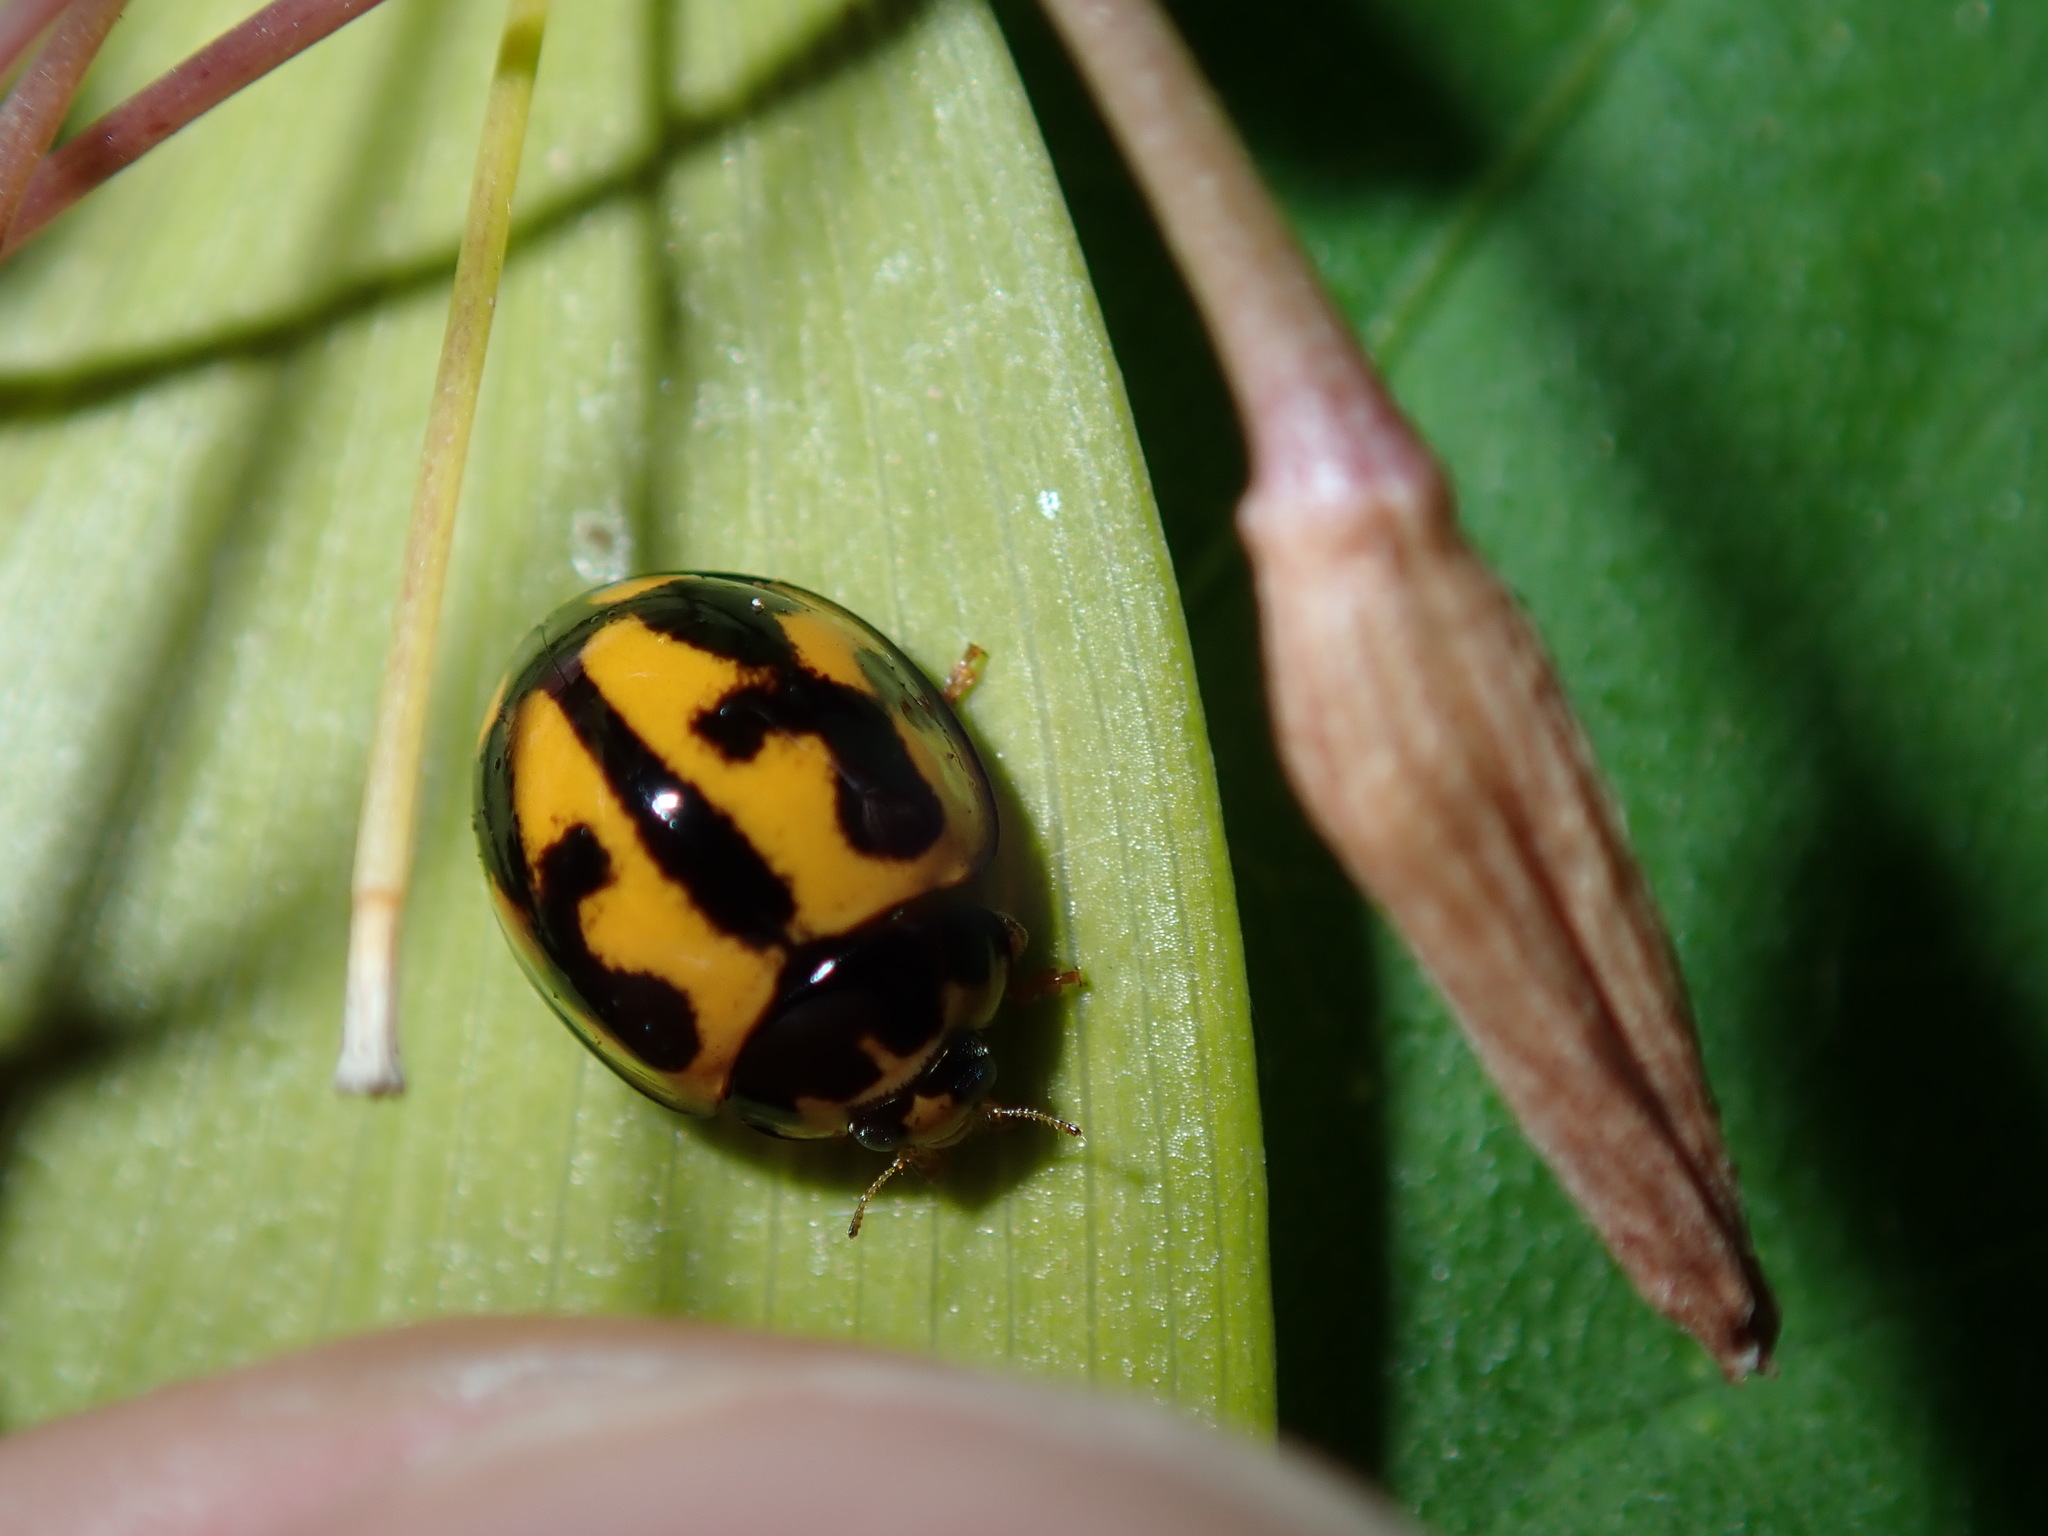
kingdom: Animalia
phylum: Arthropoda
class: Insecta
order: Coleoptera
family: Coccinellidae
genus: Coelophora
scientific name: Coelophora inaequalis
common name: Common australian lady beetle
